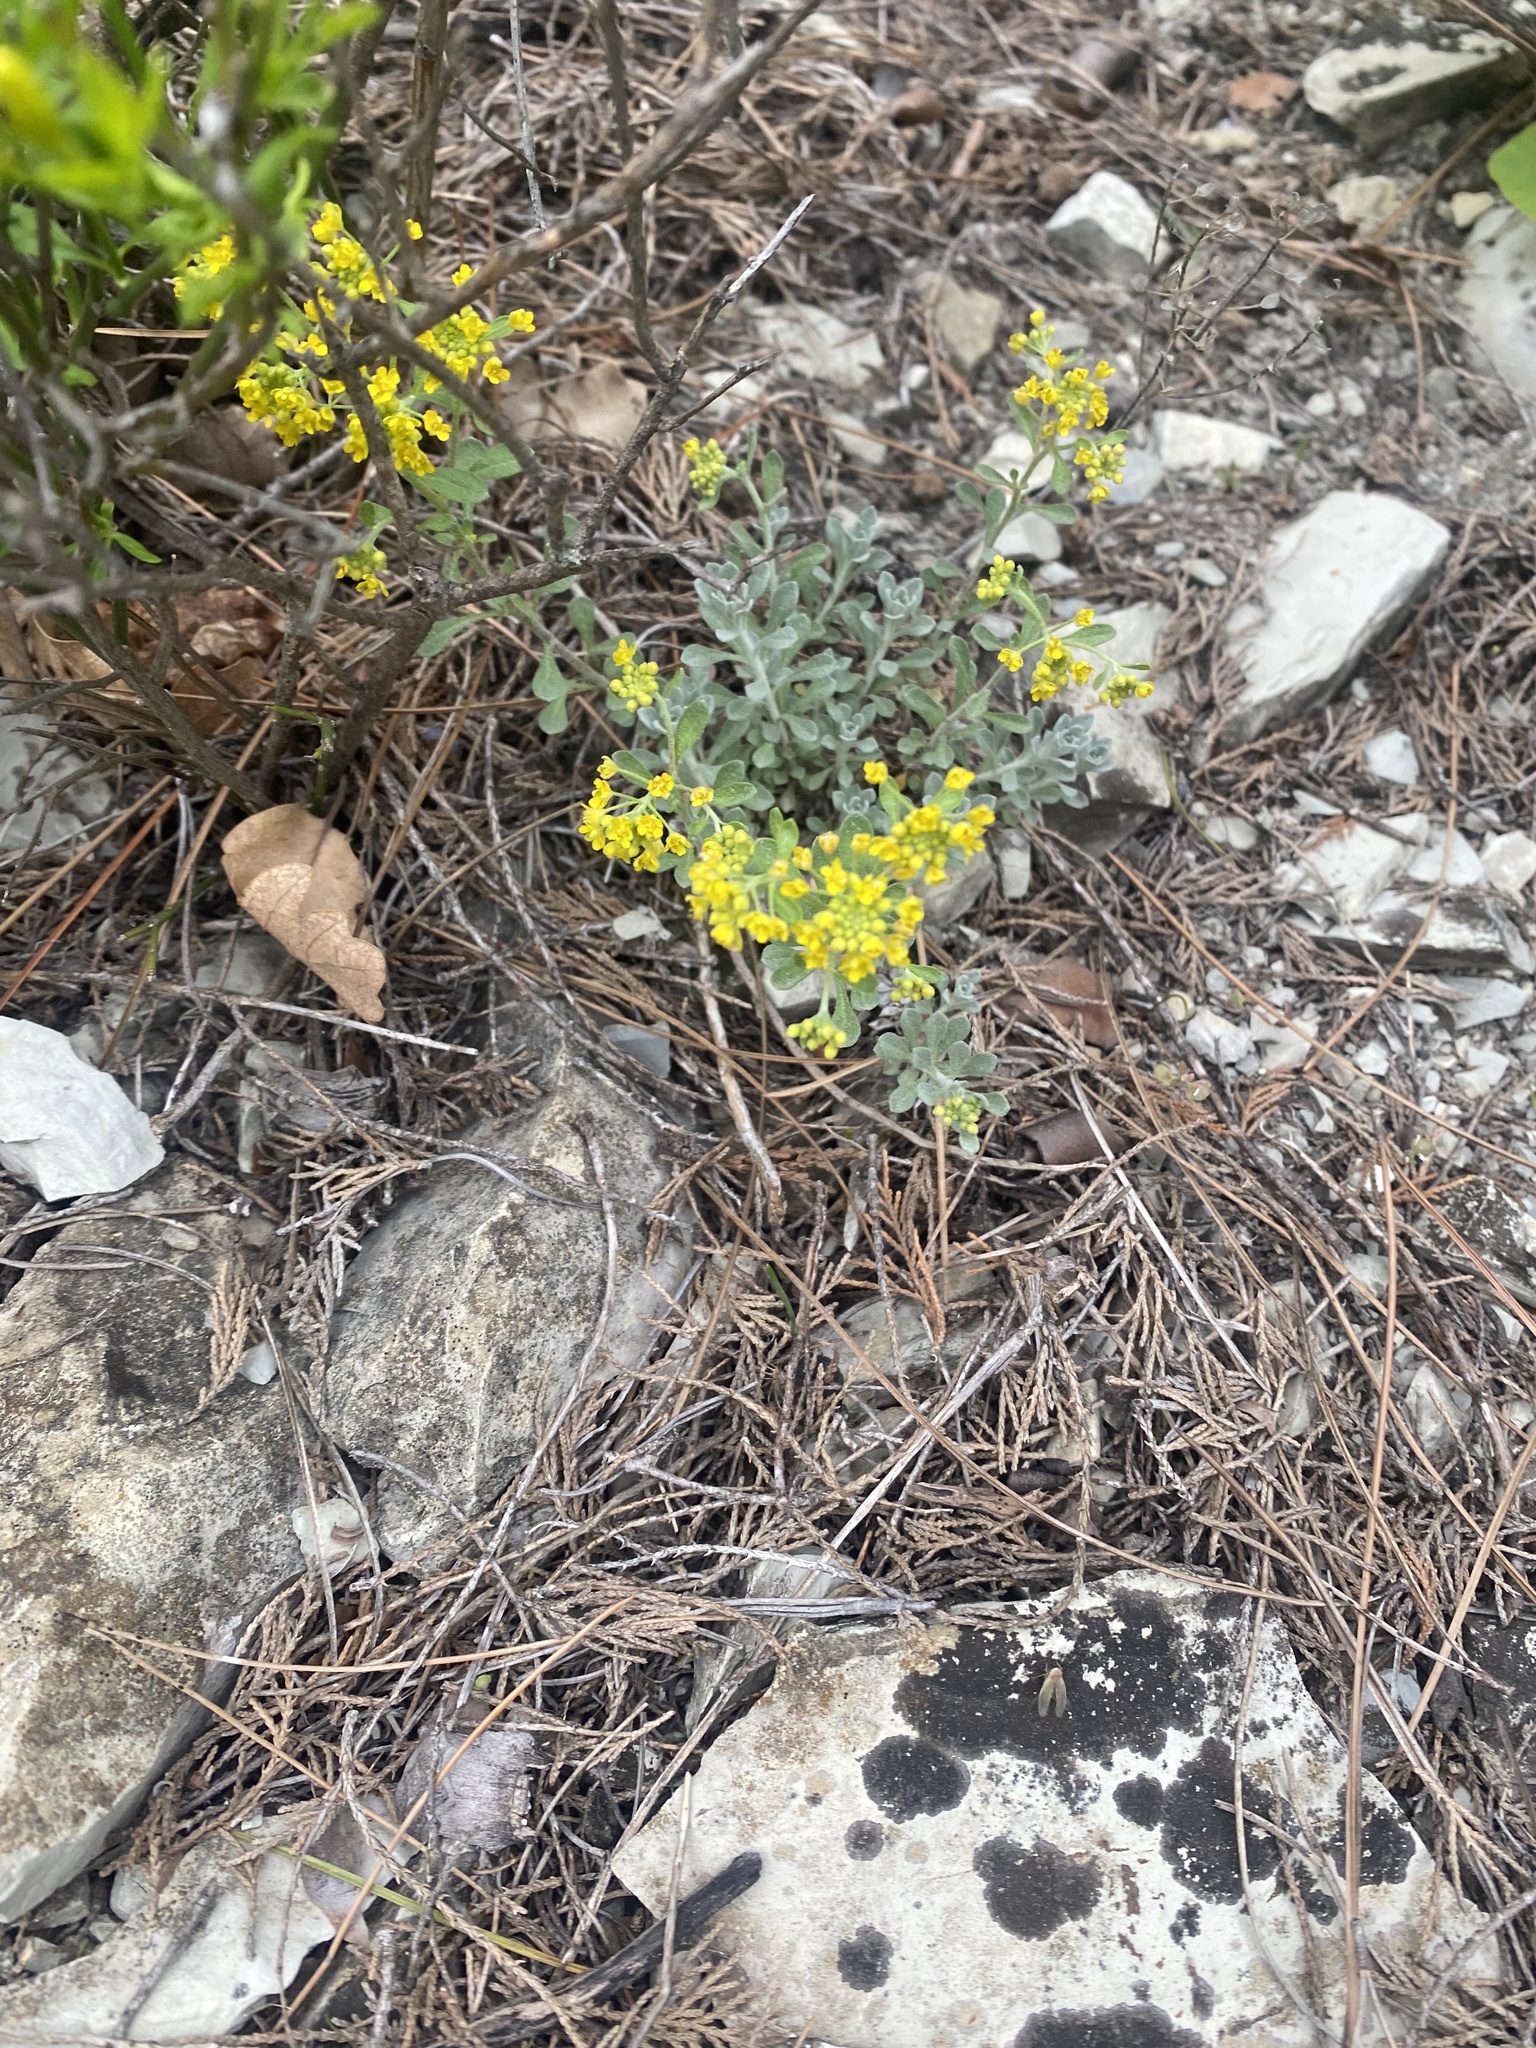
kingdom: Plantae
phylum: Tracheophyta
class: Magnoliopsida
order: Brassicales
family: Brassicaceae
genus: Odontarrhena
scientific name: Odontarrhena obtusifolia
